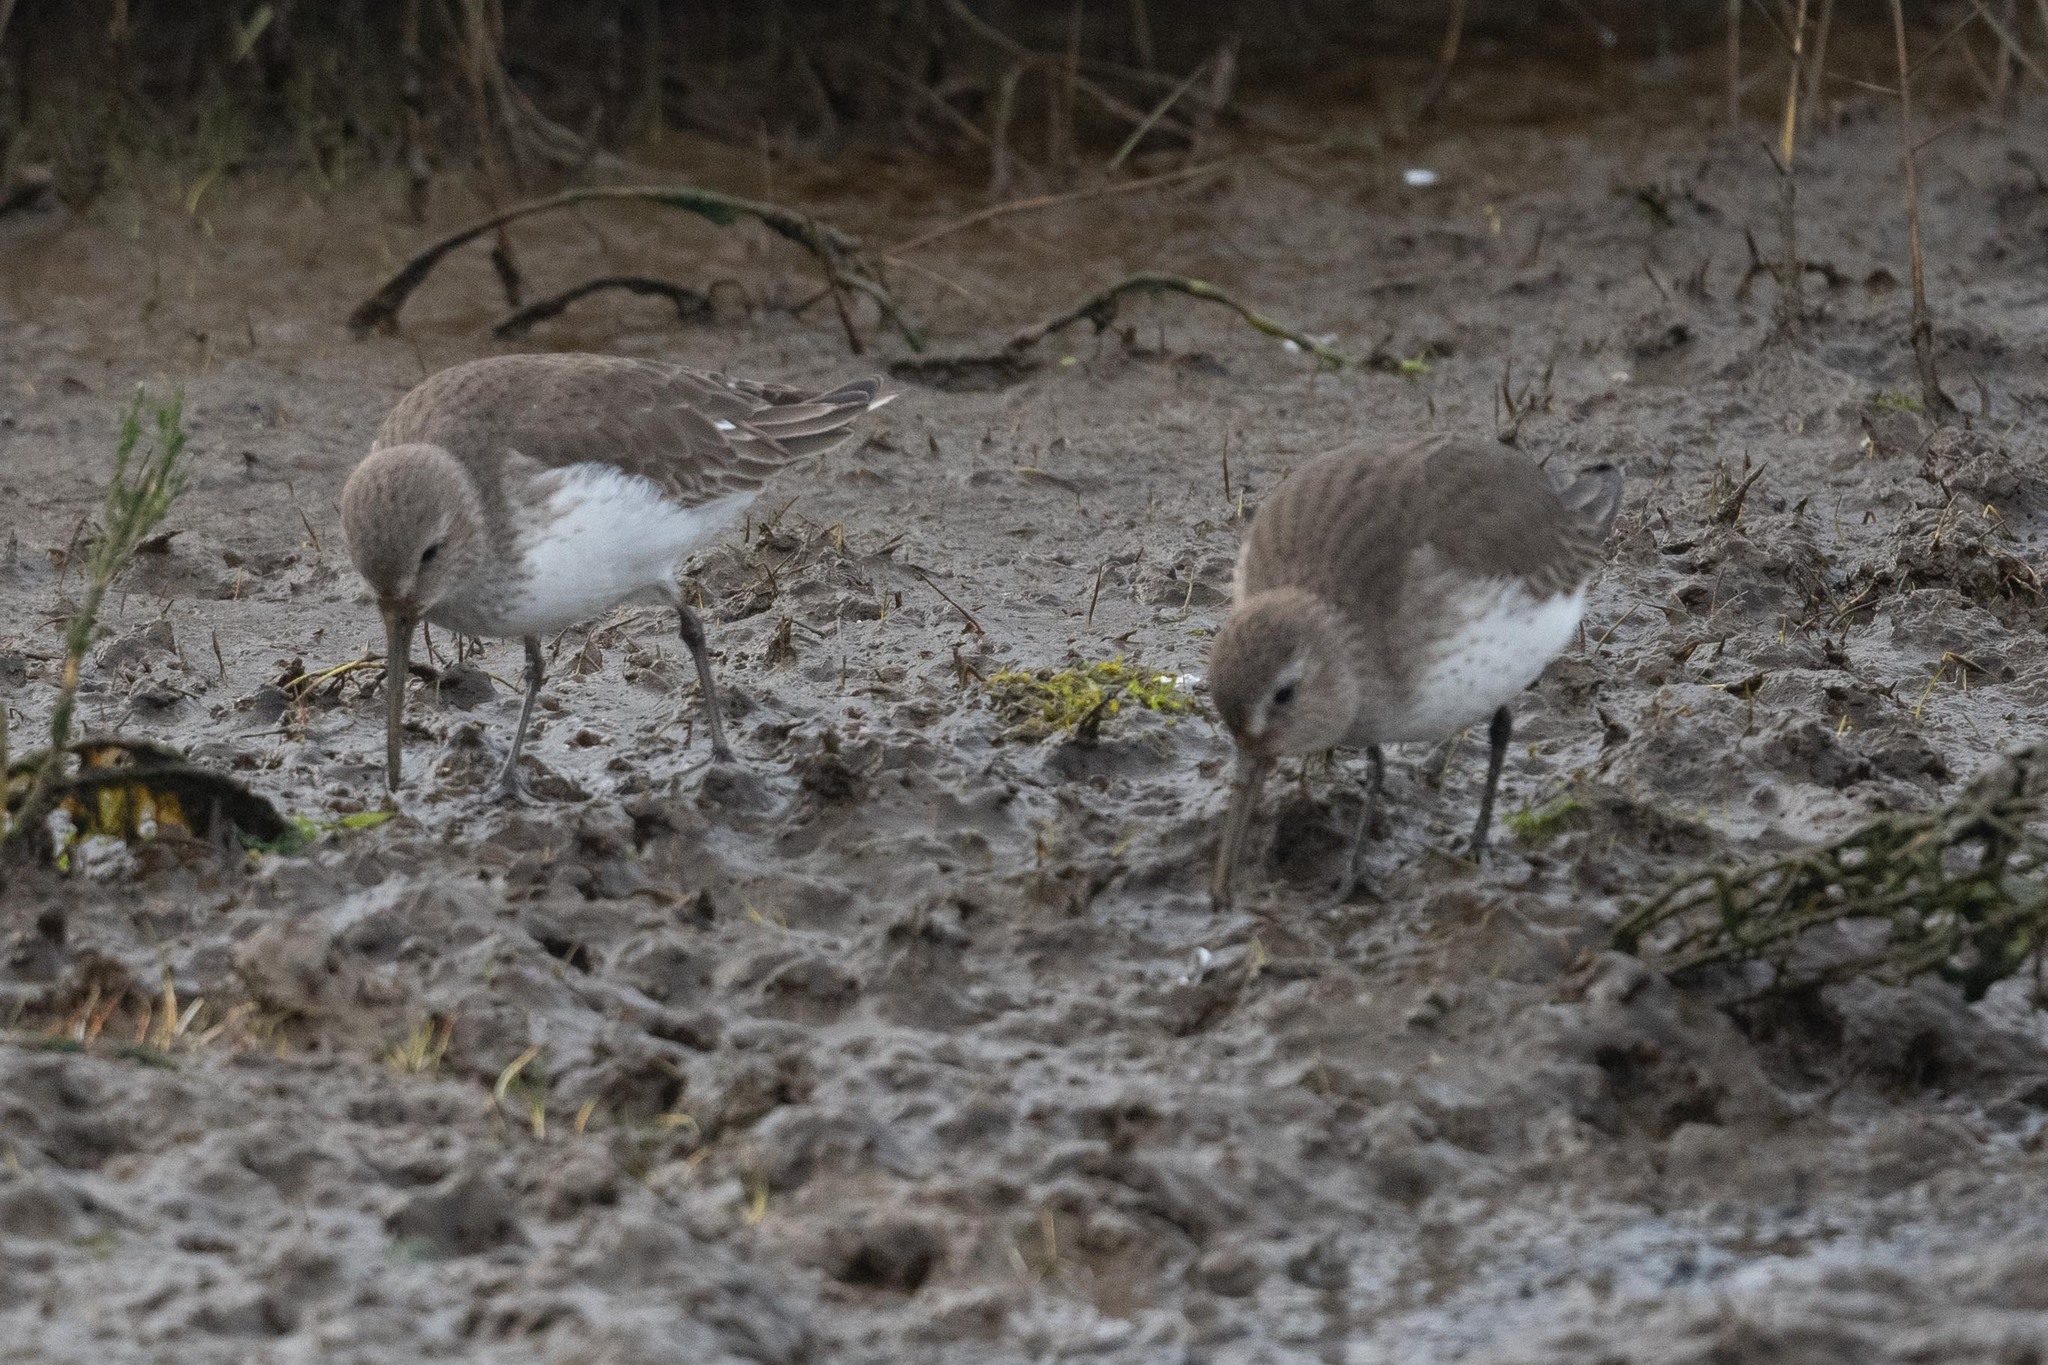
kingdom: Animalia
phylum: Chordata
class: Aves
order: Charadriiformes
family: Scolopacidae
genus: Calidris
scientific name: Calidris alpina
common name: Dunlin
